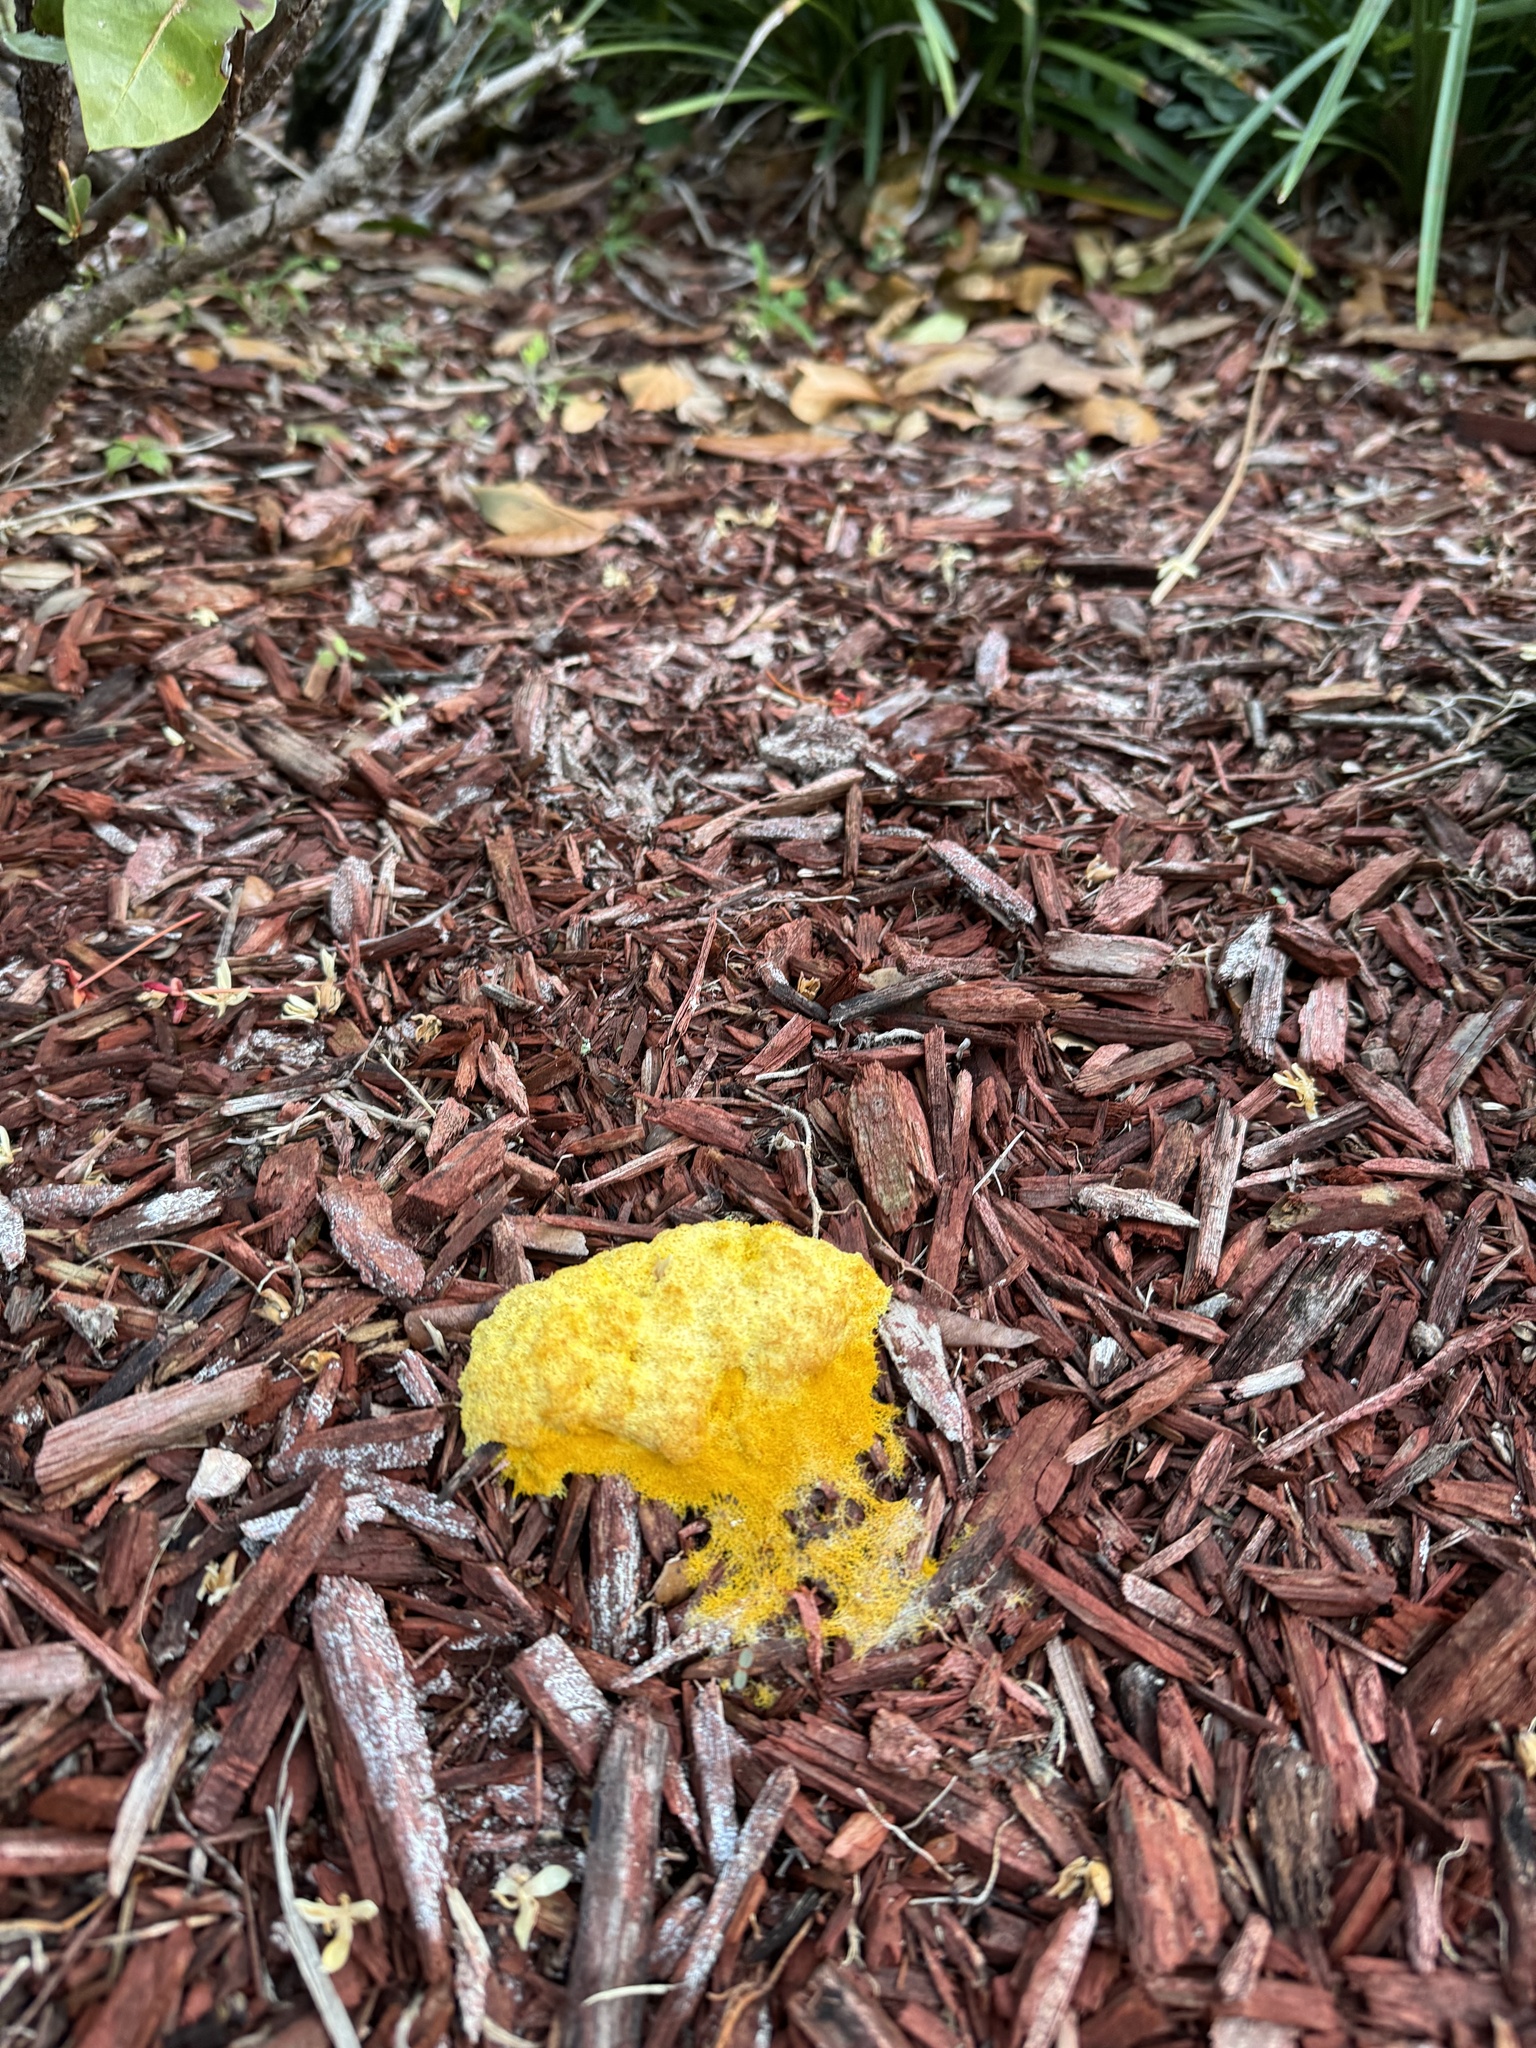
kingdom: Protozoa
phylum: Mycetozoa
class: Myxomycetes
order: Physarales
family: Physaraceae
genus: Fuligo
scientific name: Fuligo septica
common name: Dog vomit slime mold
